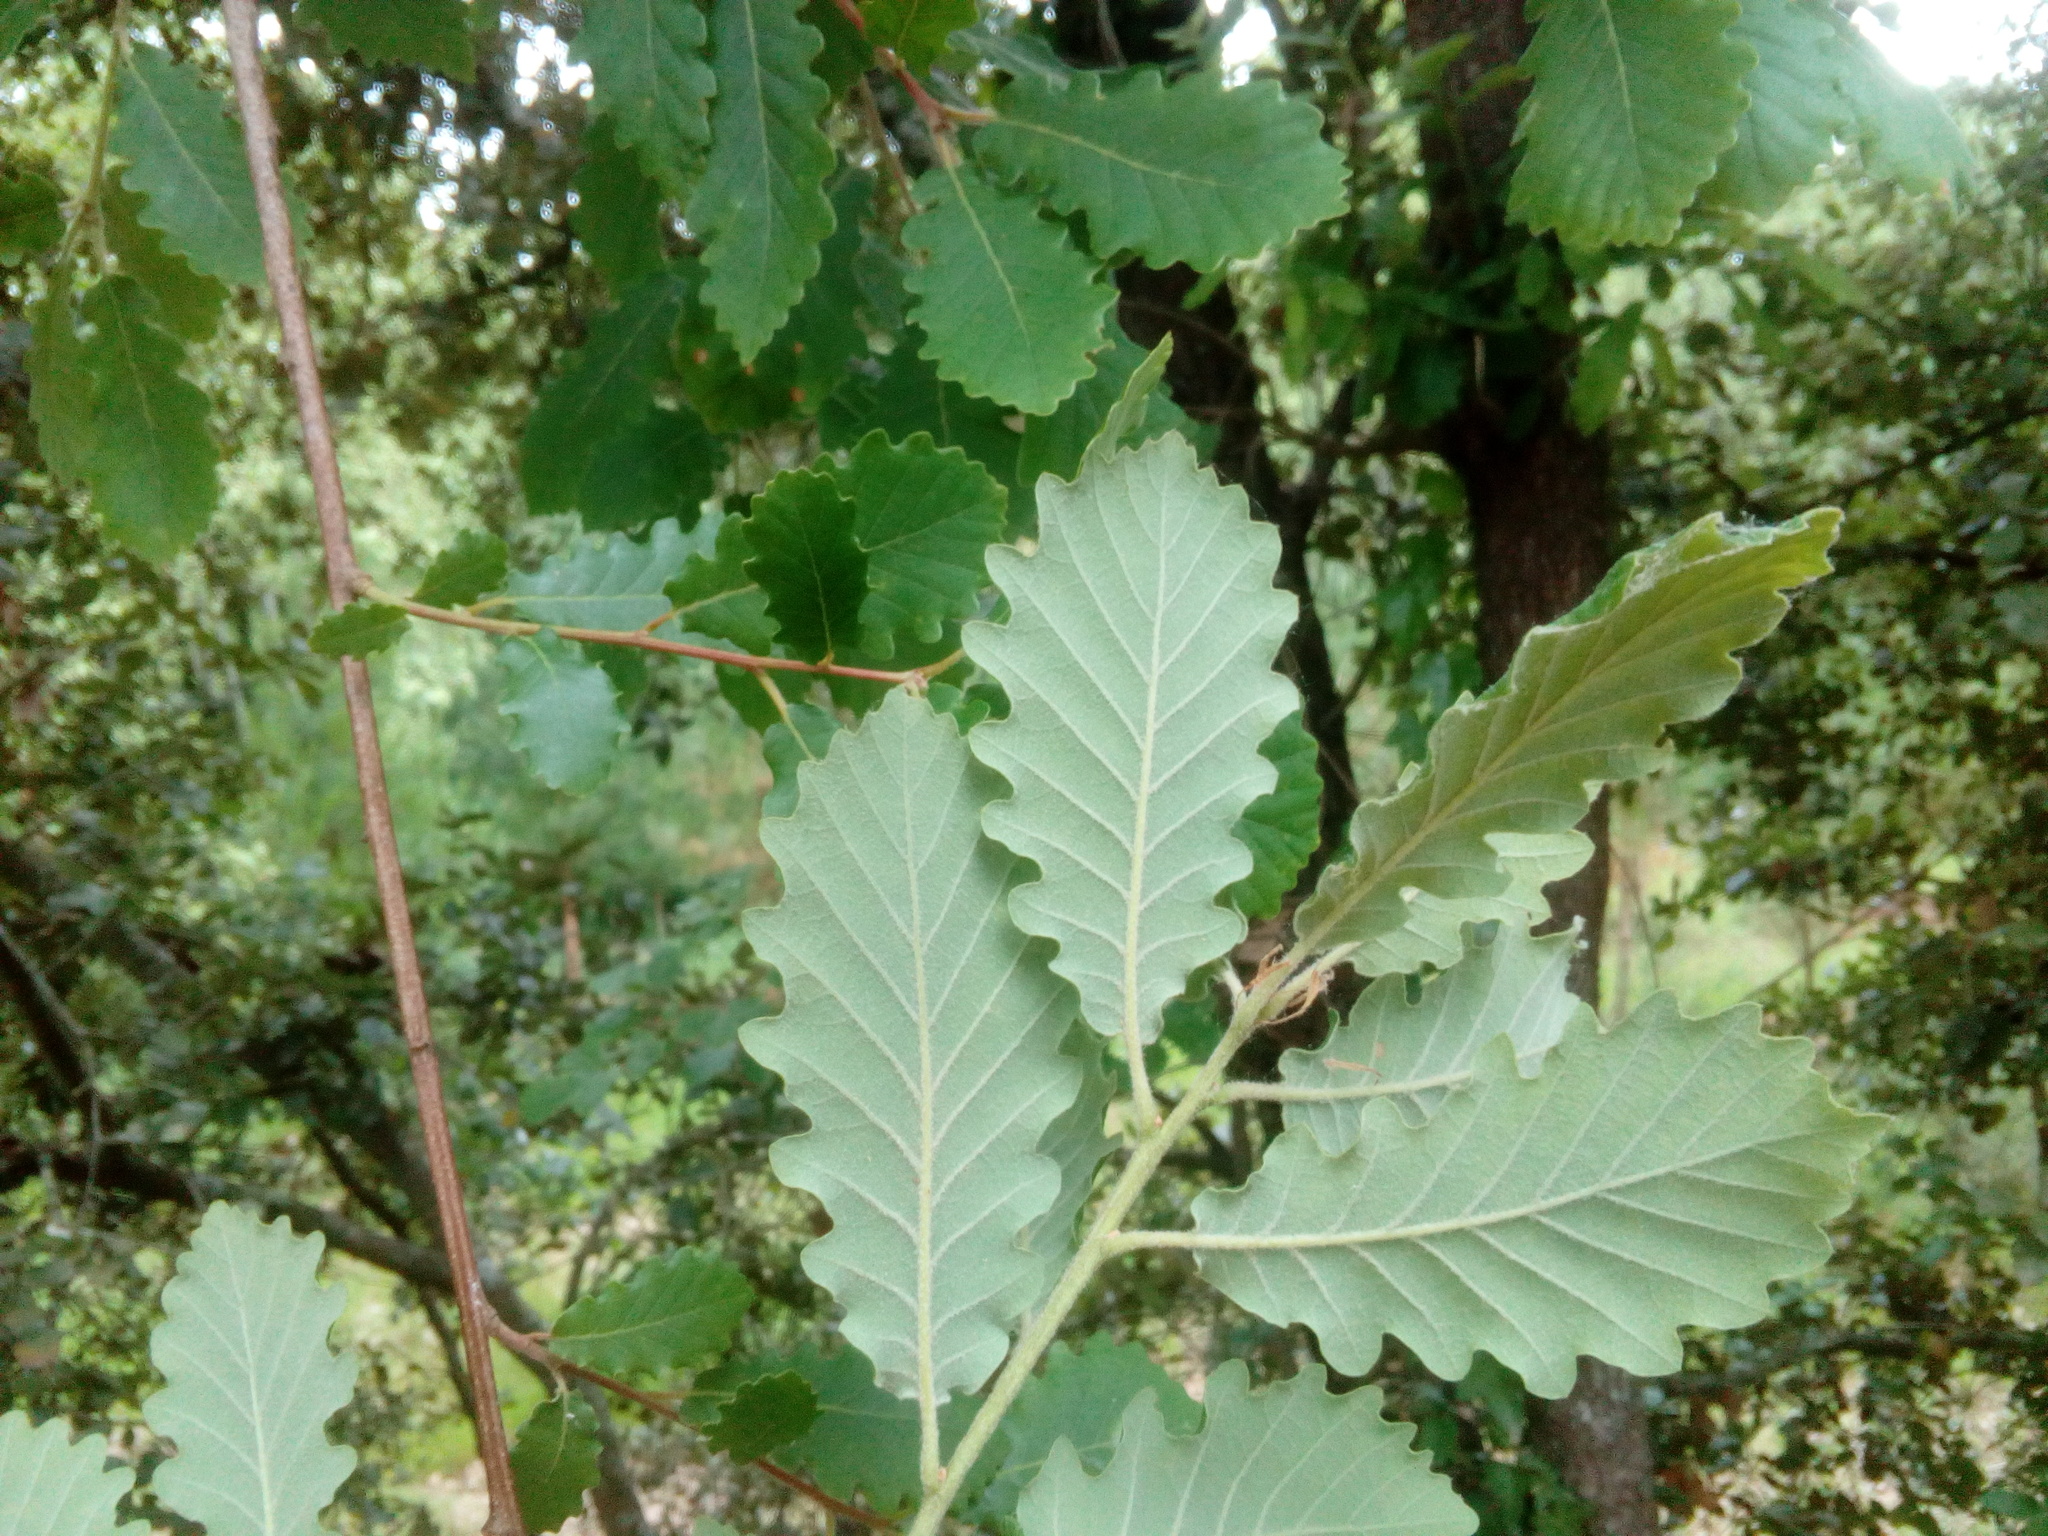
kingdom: Plantae
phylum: Tracheophyta
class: Magnoliopsida
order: Fagales
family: Fagaceae
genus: Quercus
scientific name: Quercus pubescens
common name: Downy oak
